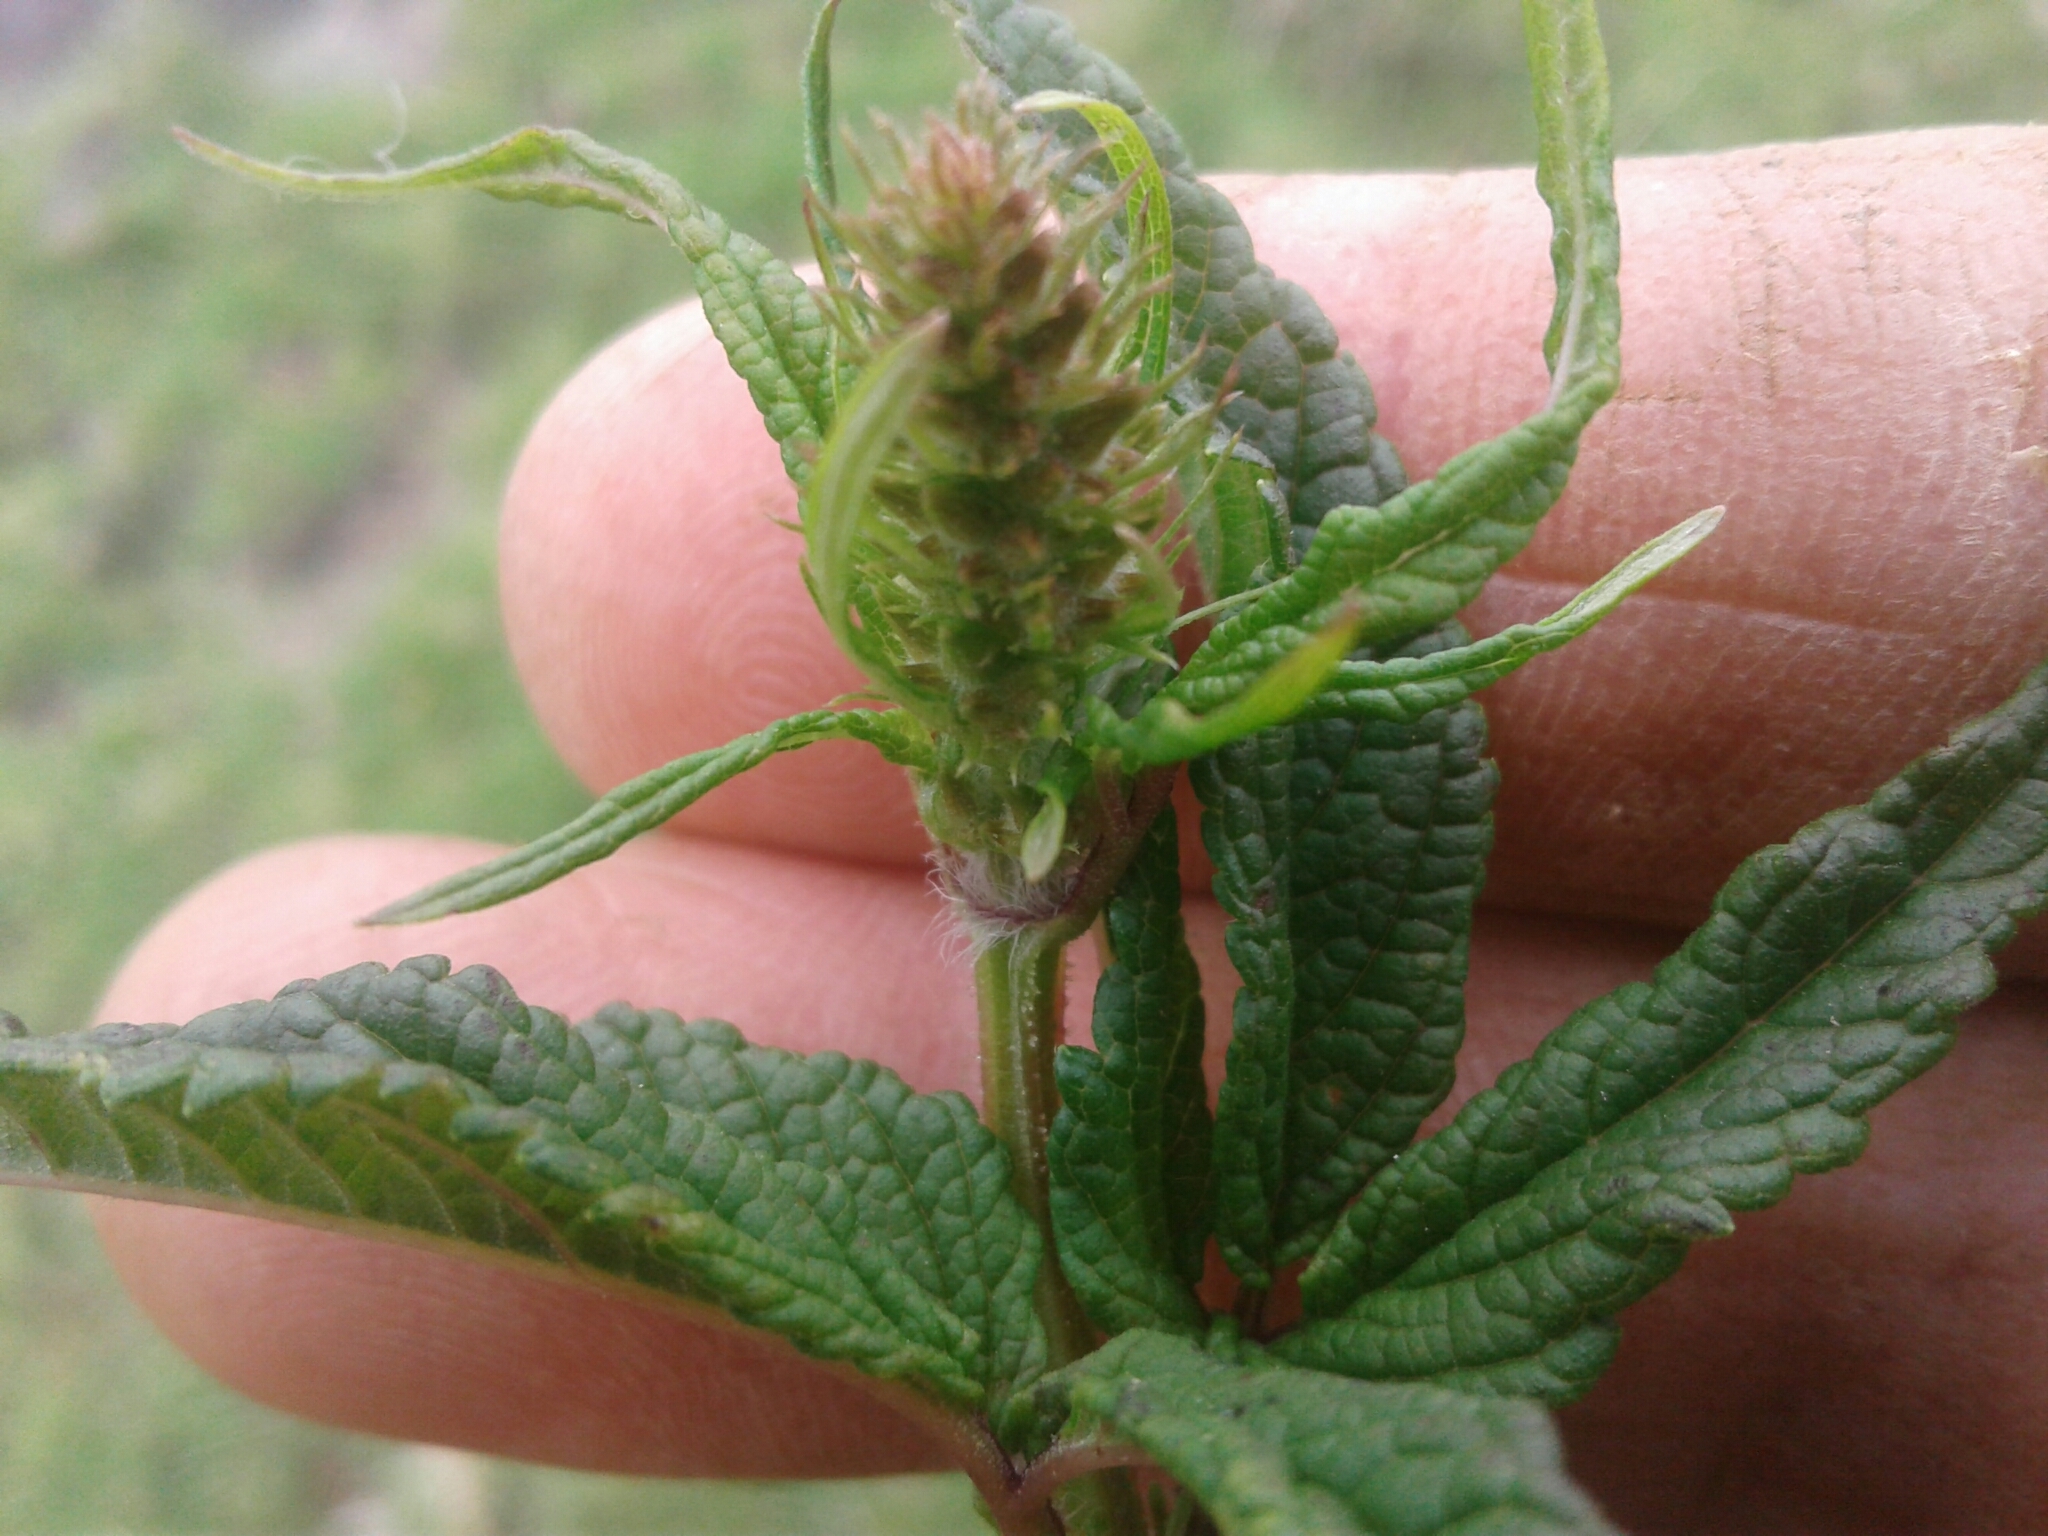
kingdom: Plantae
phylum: Tracheophyta
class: Magnoliopsida
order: Lamiales
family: Lamiaceae
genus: Cedronella
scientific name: Cedronella canariensis
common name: Canary islands balm
